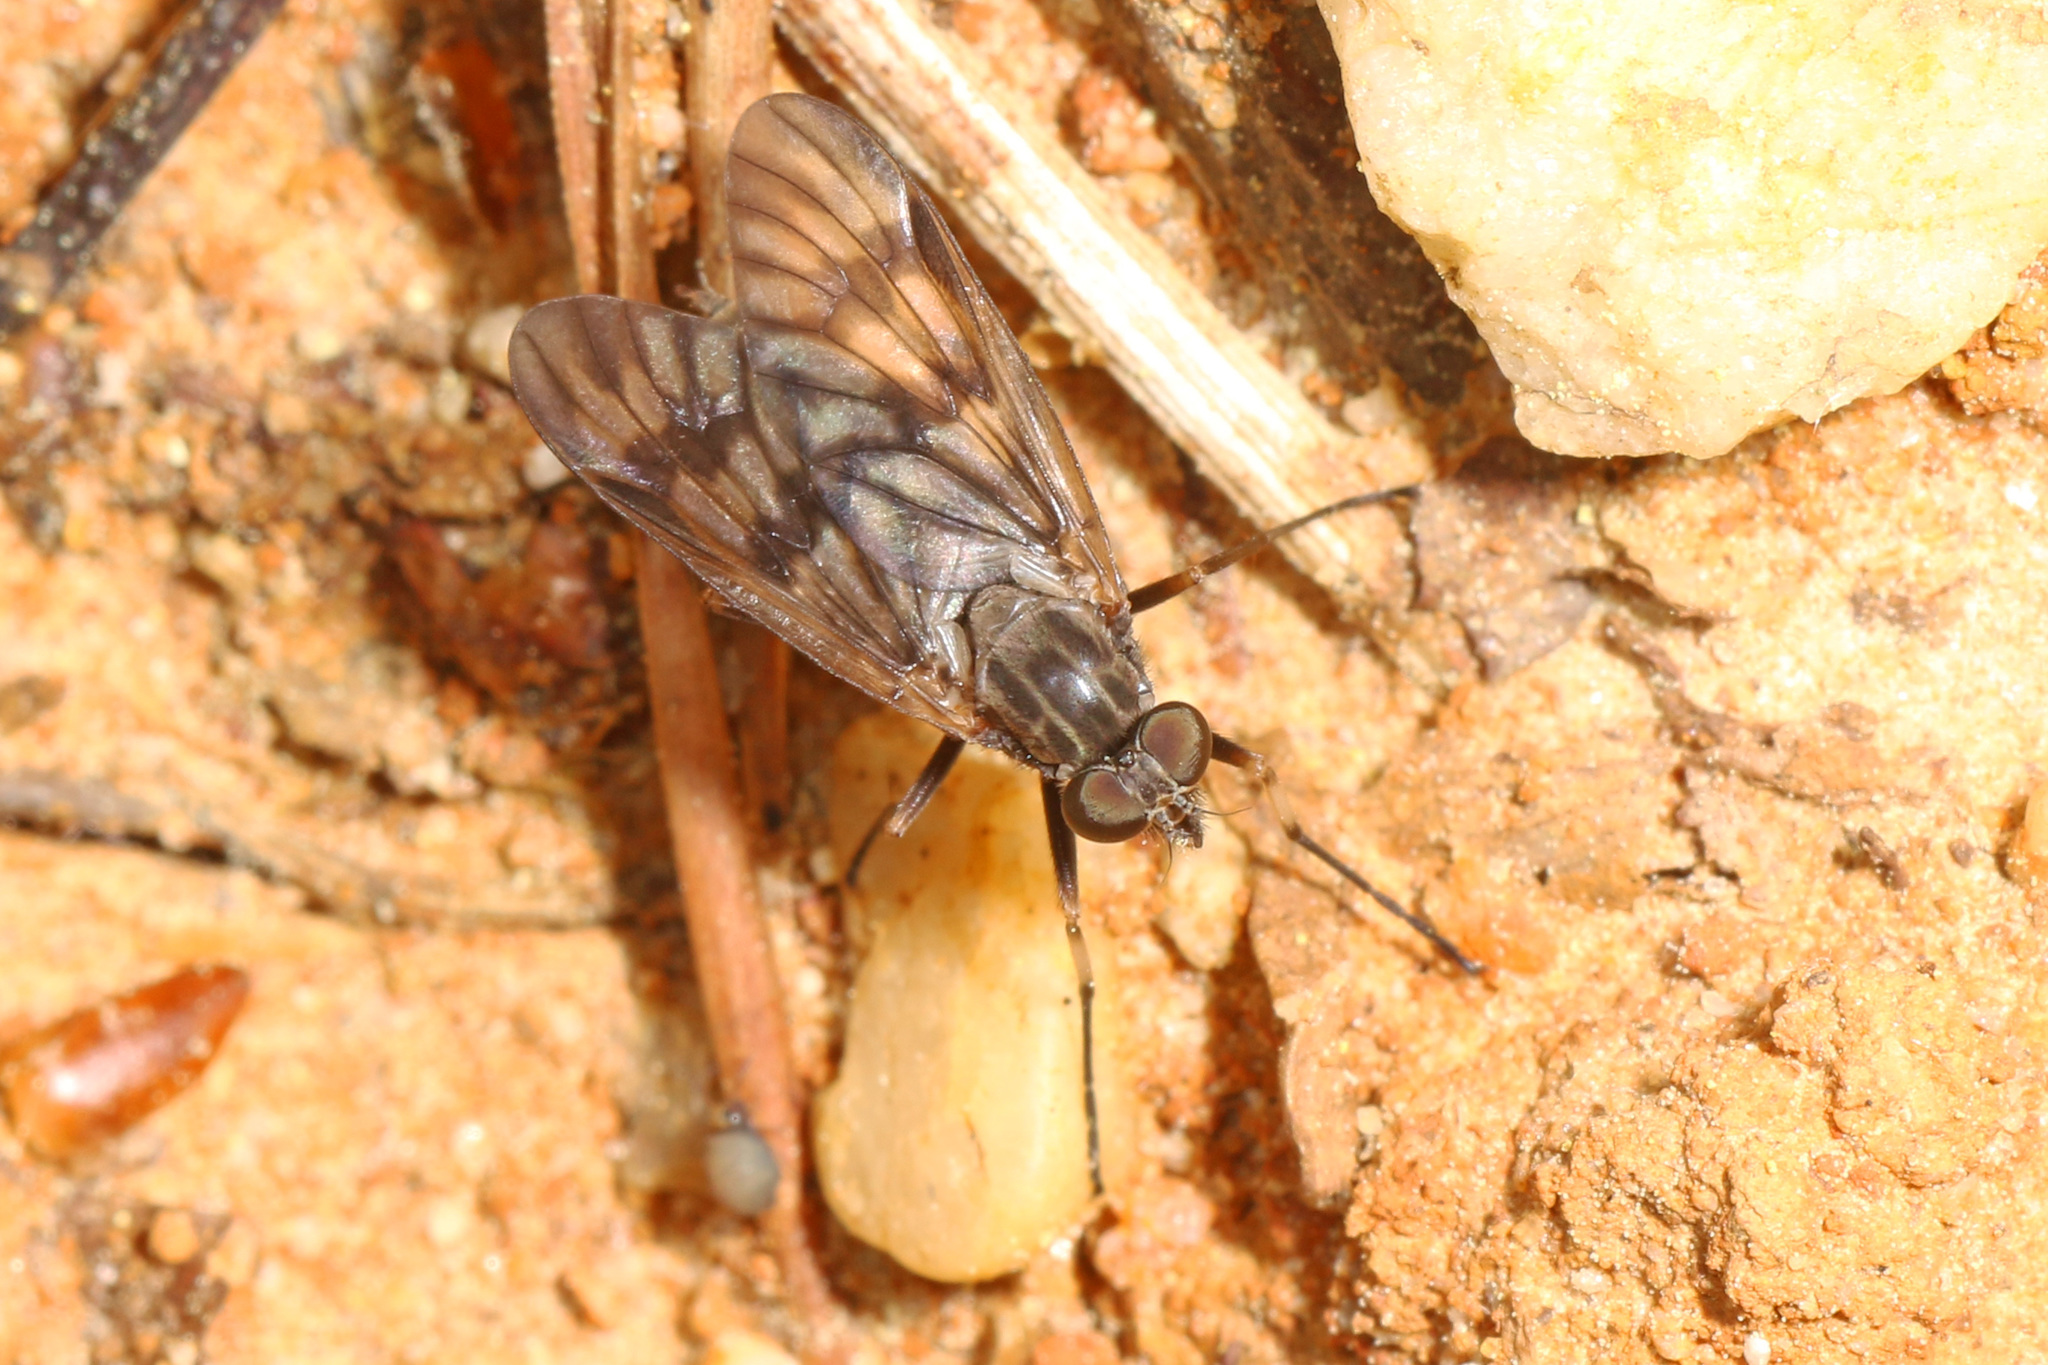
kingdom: Animalia
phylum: Arthropoda
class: Insecta
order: Diptera
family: Rhagionidae
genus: Rhagio
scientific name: Rhagio mystaceus
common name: Common snipe fly
